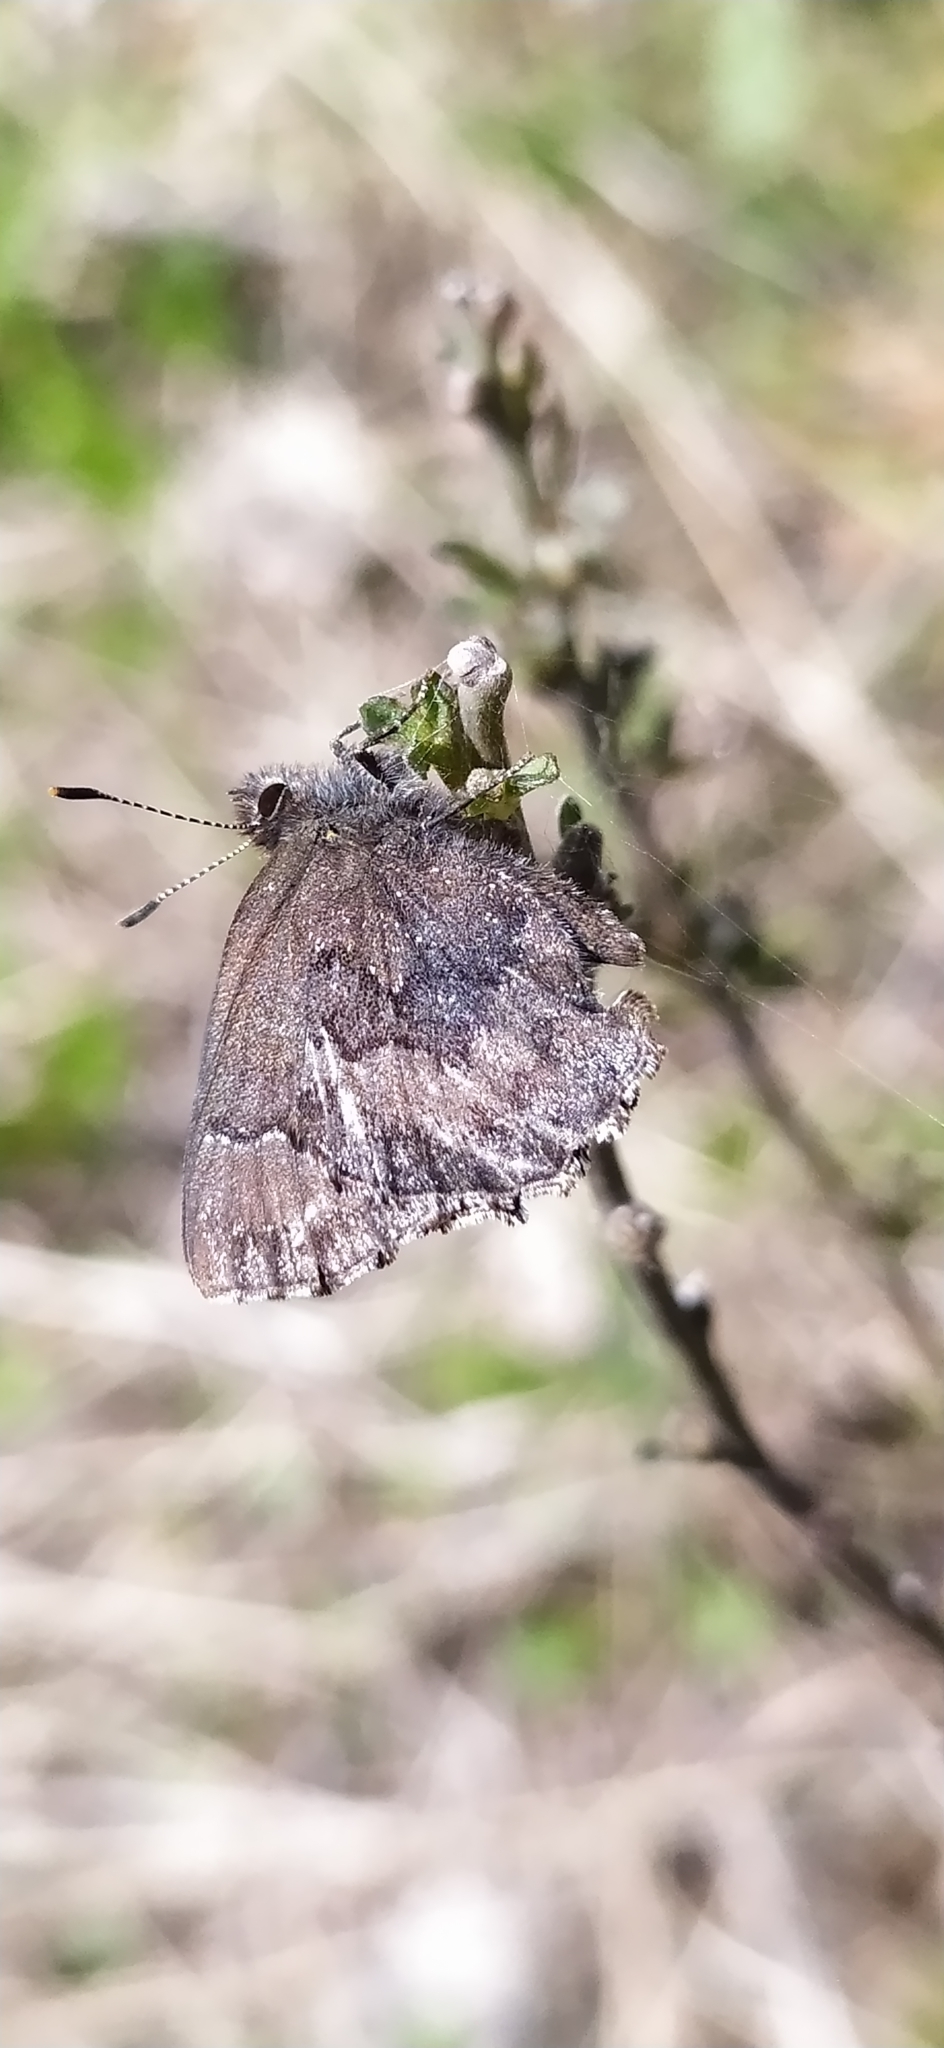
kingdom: Animalia
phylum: Arthropoda
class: Insecta
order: Lepidoptera
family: Lycaenidae
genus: Ginzia
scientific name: Ginzia Ahlbergia frivaldszkyi
